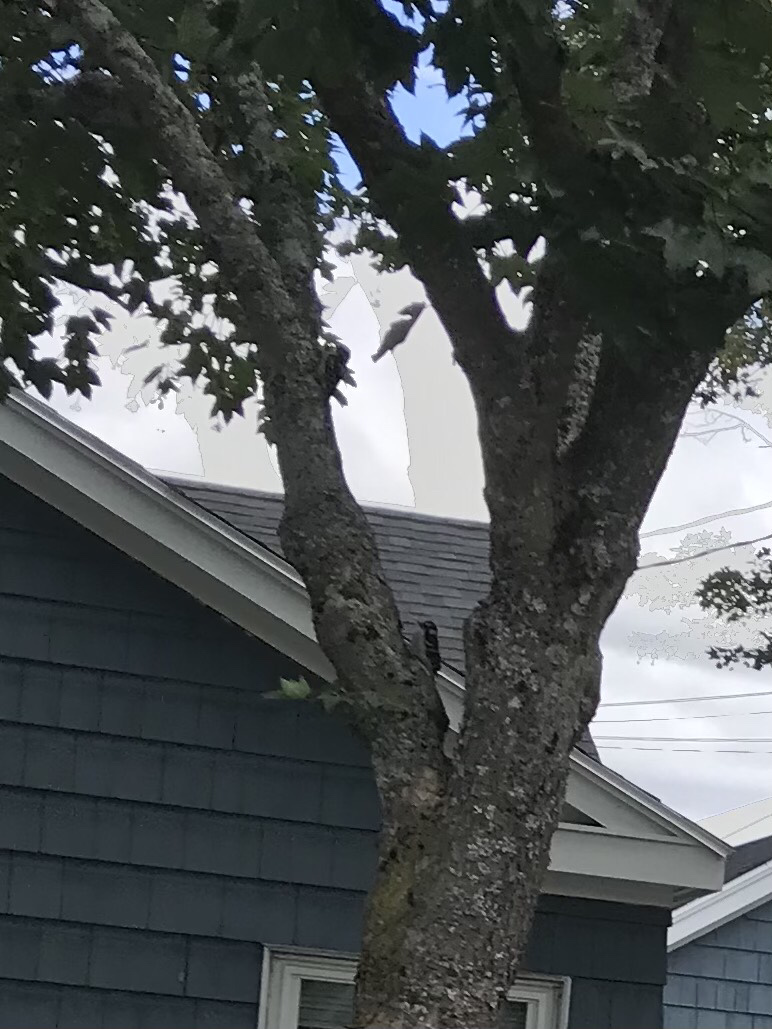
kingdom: Animalia
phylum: Chordata
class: Aves
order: Piciformes
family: Picidae
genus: Dryobates
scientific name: Dryobates pubescens
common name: Downy woodpecker
